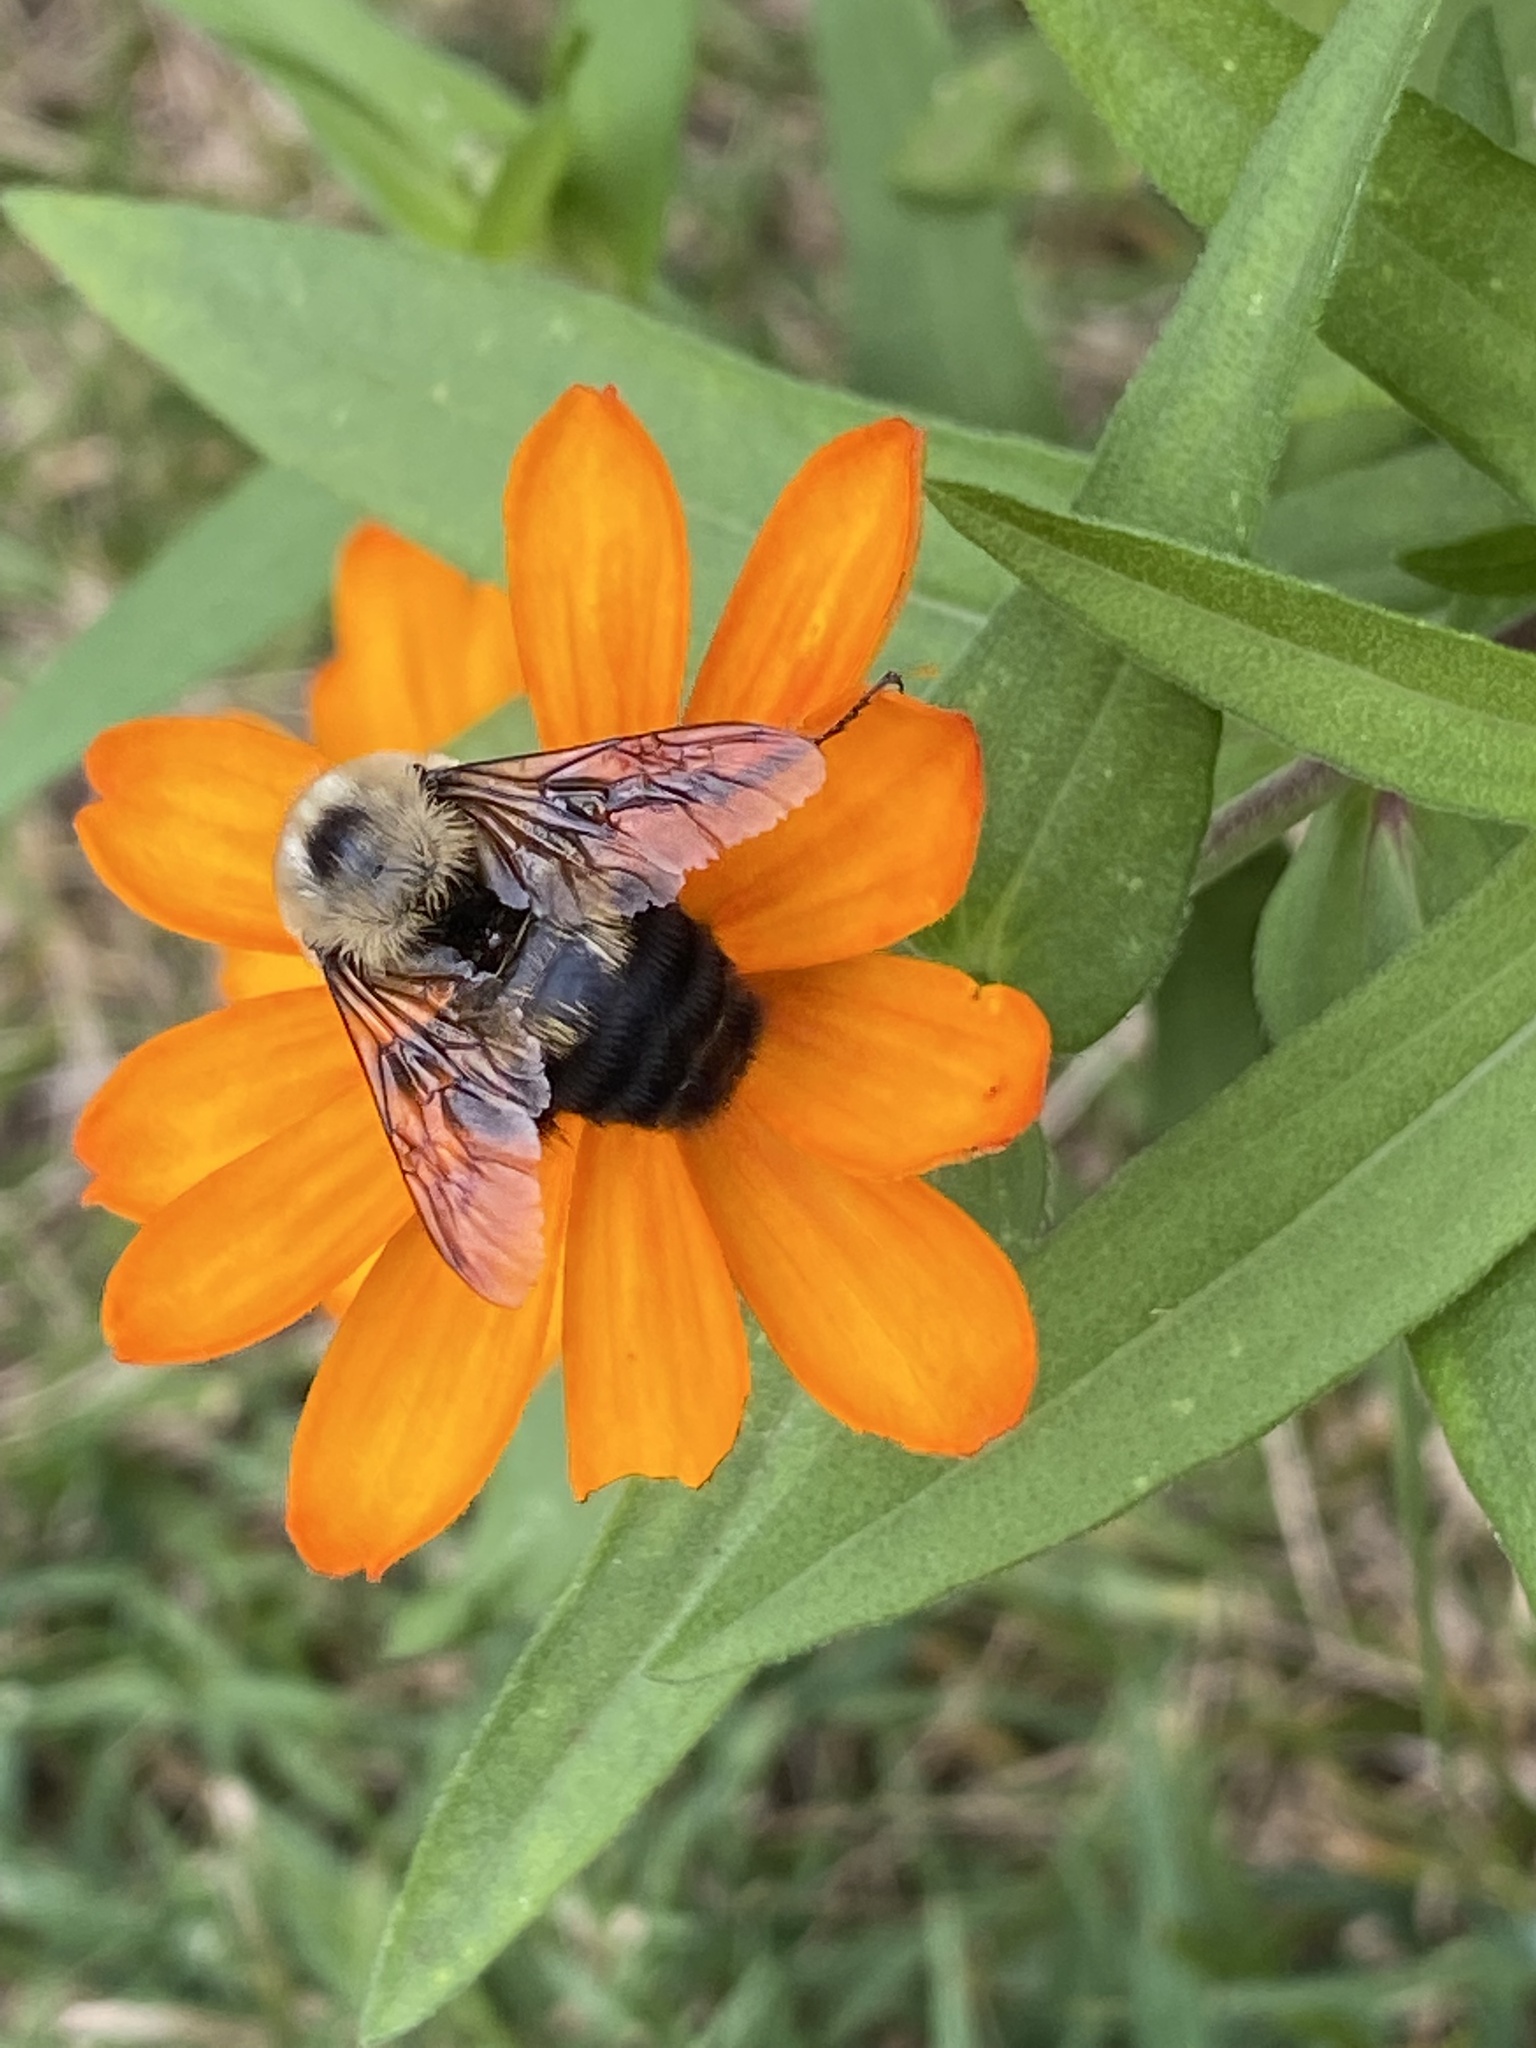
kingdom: Animalia
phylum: Arthropoda
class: Insecta
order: Hymenoptera
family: Apidae
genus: Bombus
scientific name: Bombus griseocollis
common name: Brown-belted bumble bee
